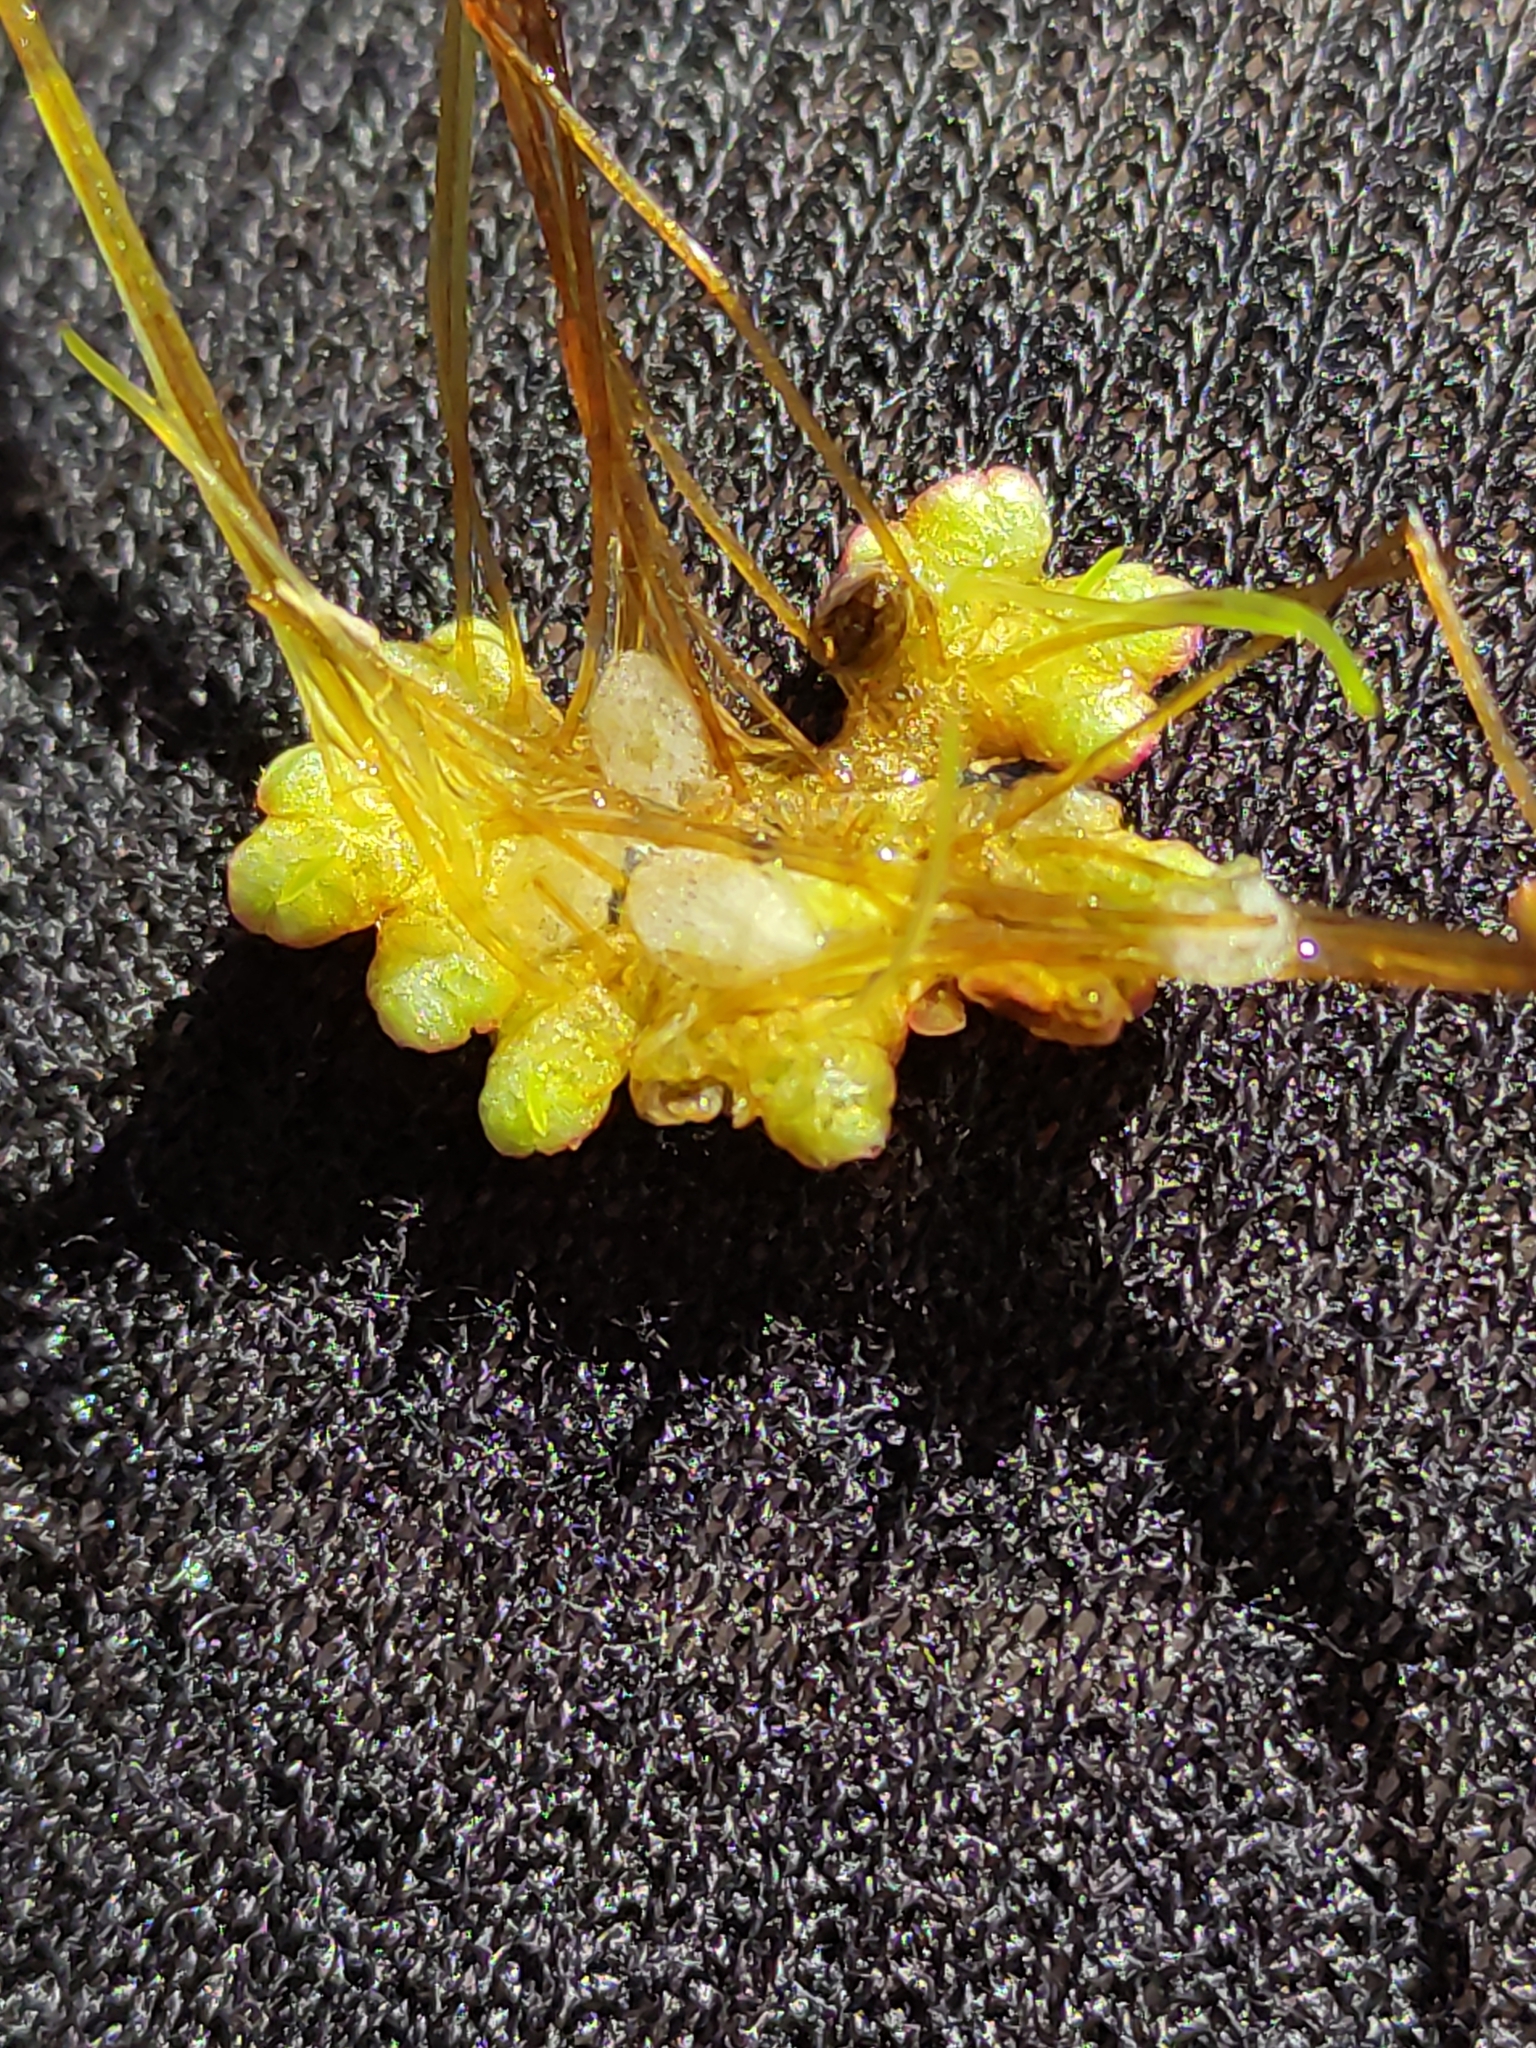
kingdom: Plantae
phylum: Tracheophyta
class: Polypodiopsida
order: Salviniales
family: Salviniaceae
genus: Azolla
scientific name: Azolla rubra
